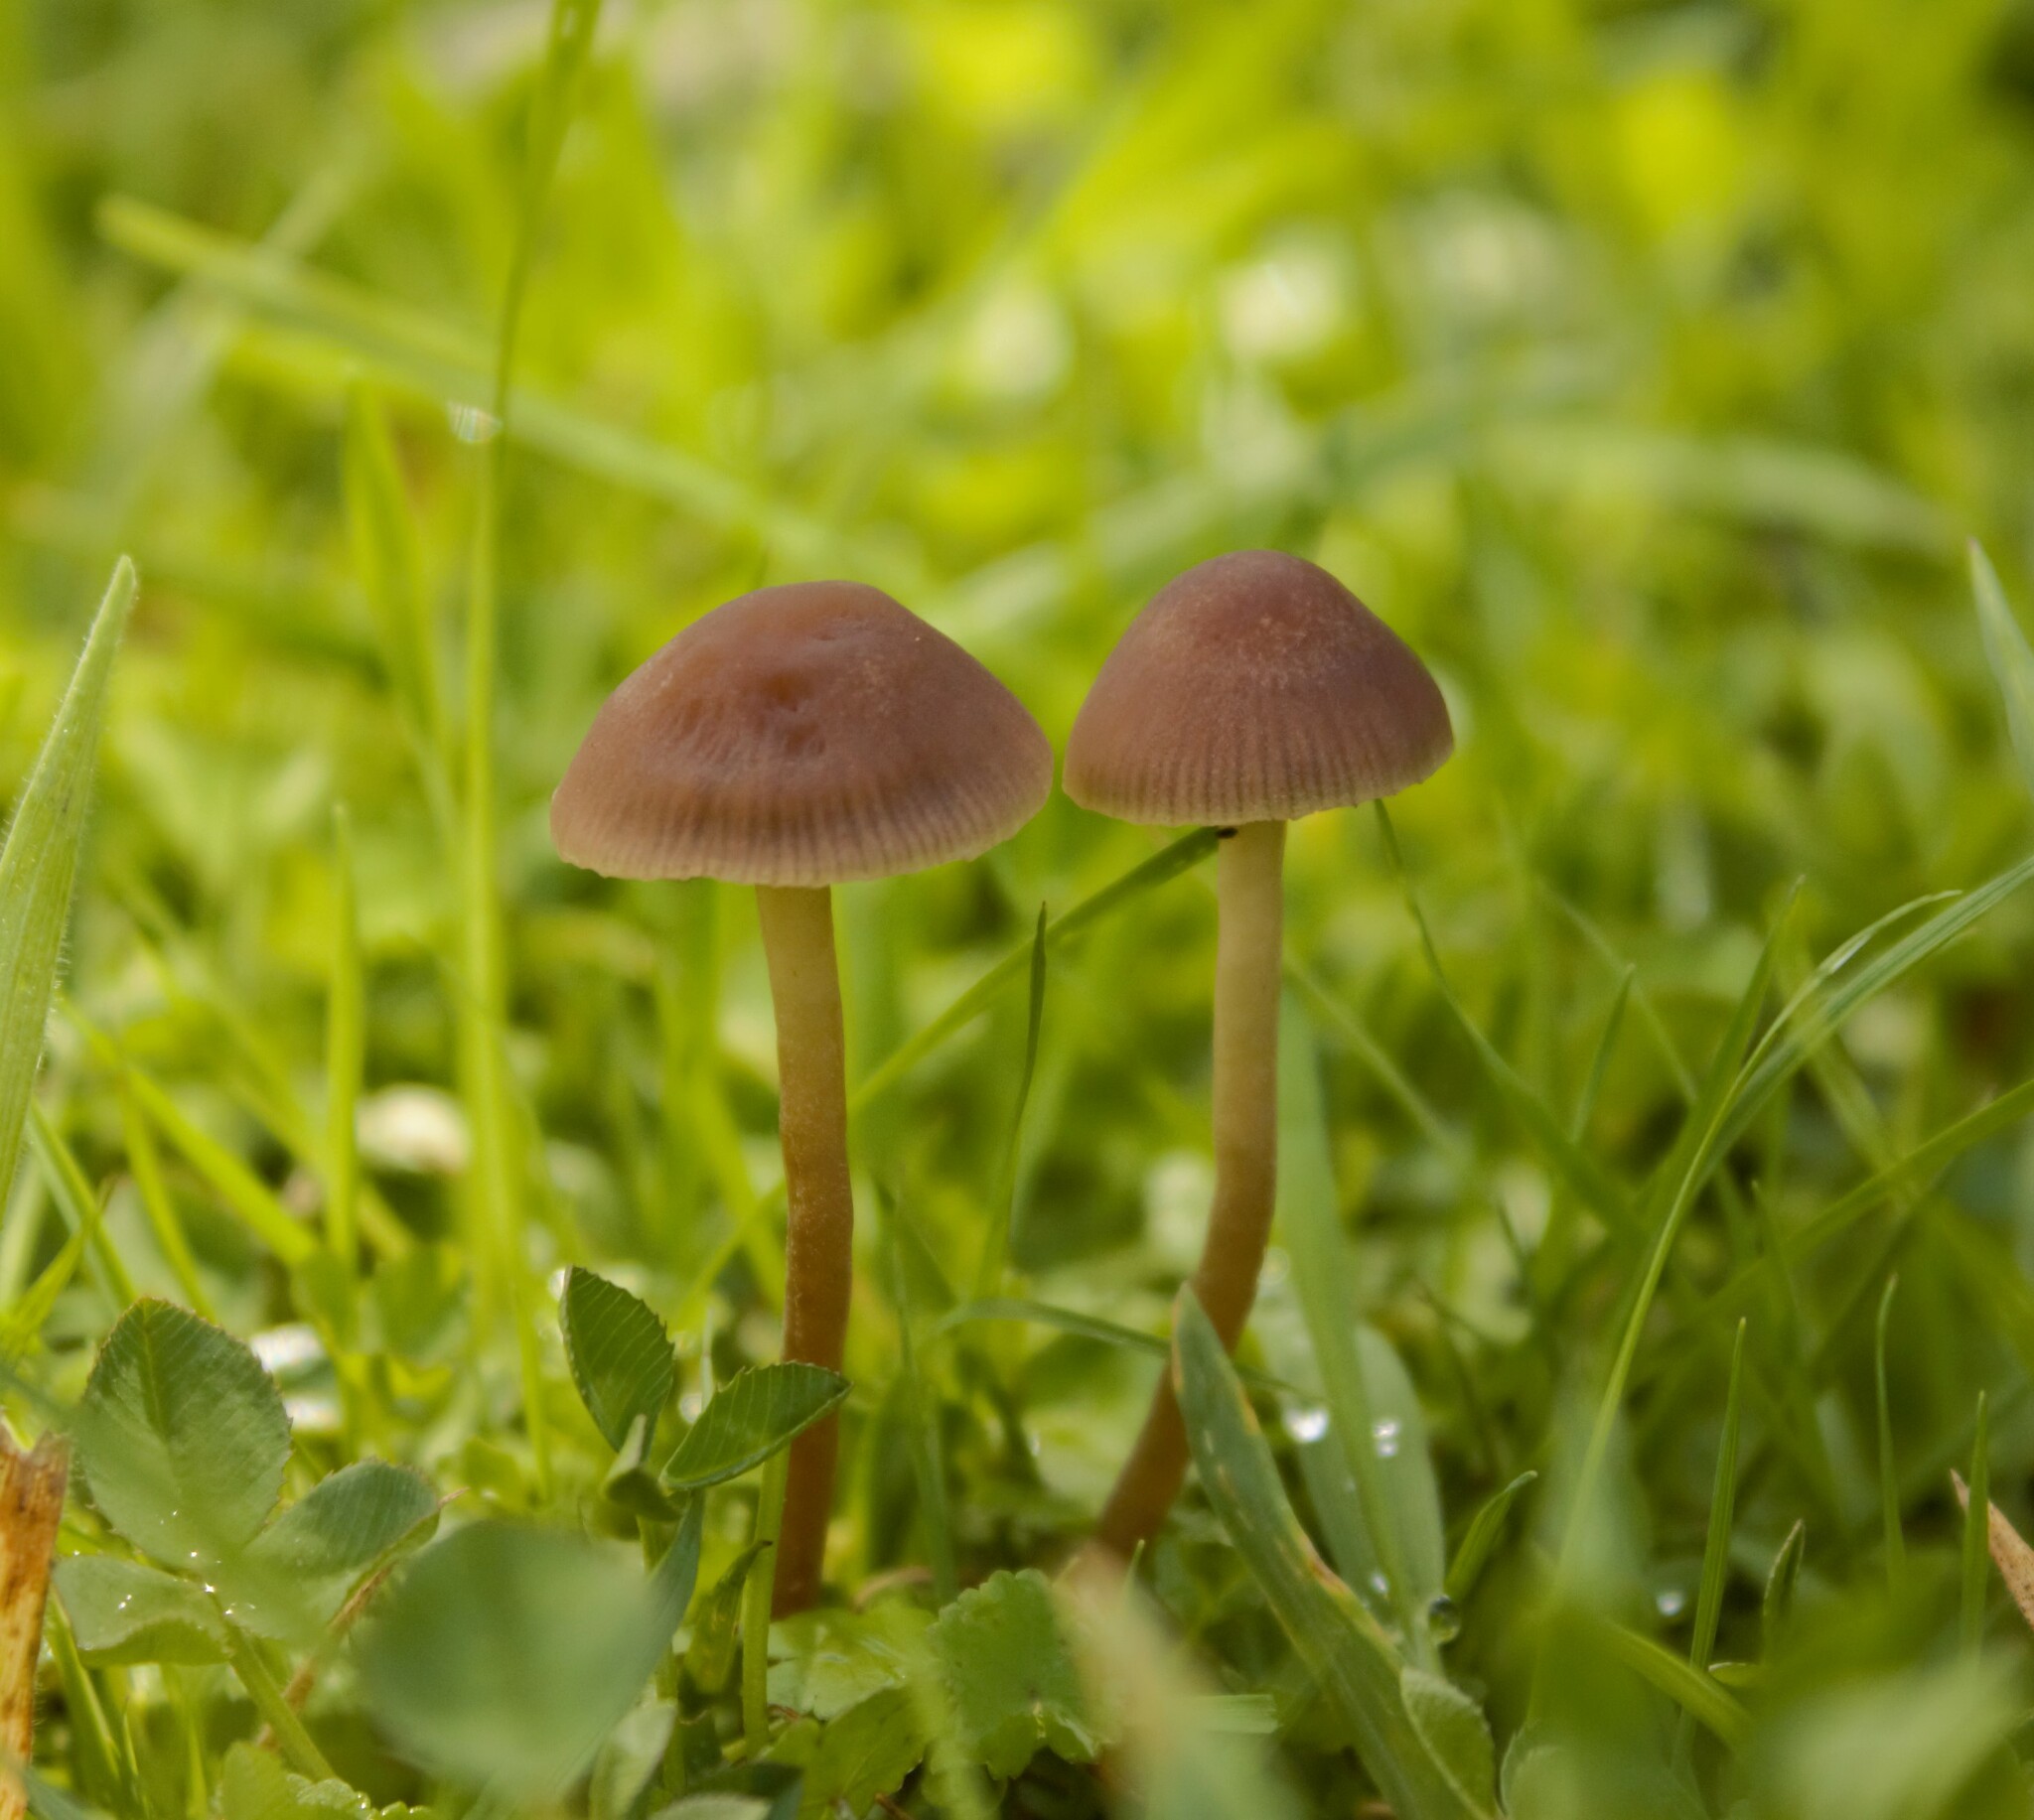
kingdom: Fungi
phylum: Basidiomycota
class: Agaricomycetes
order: Agaricales
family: Bolbitiaceae
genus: Panaeolina
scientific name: Panaeolina foenisecii
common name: Brown hay cap
